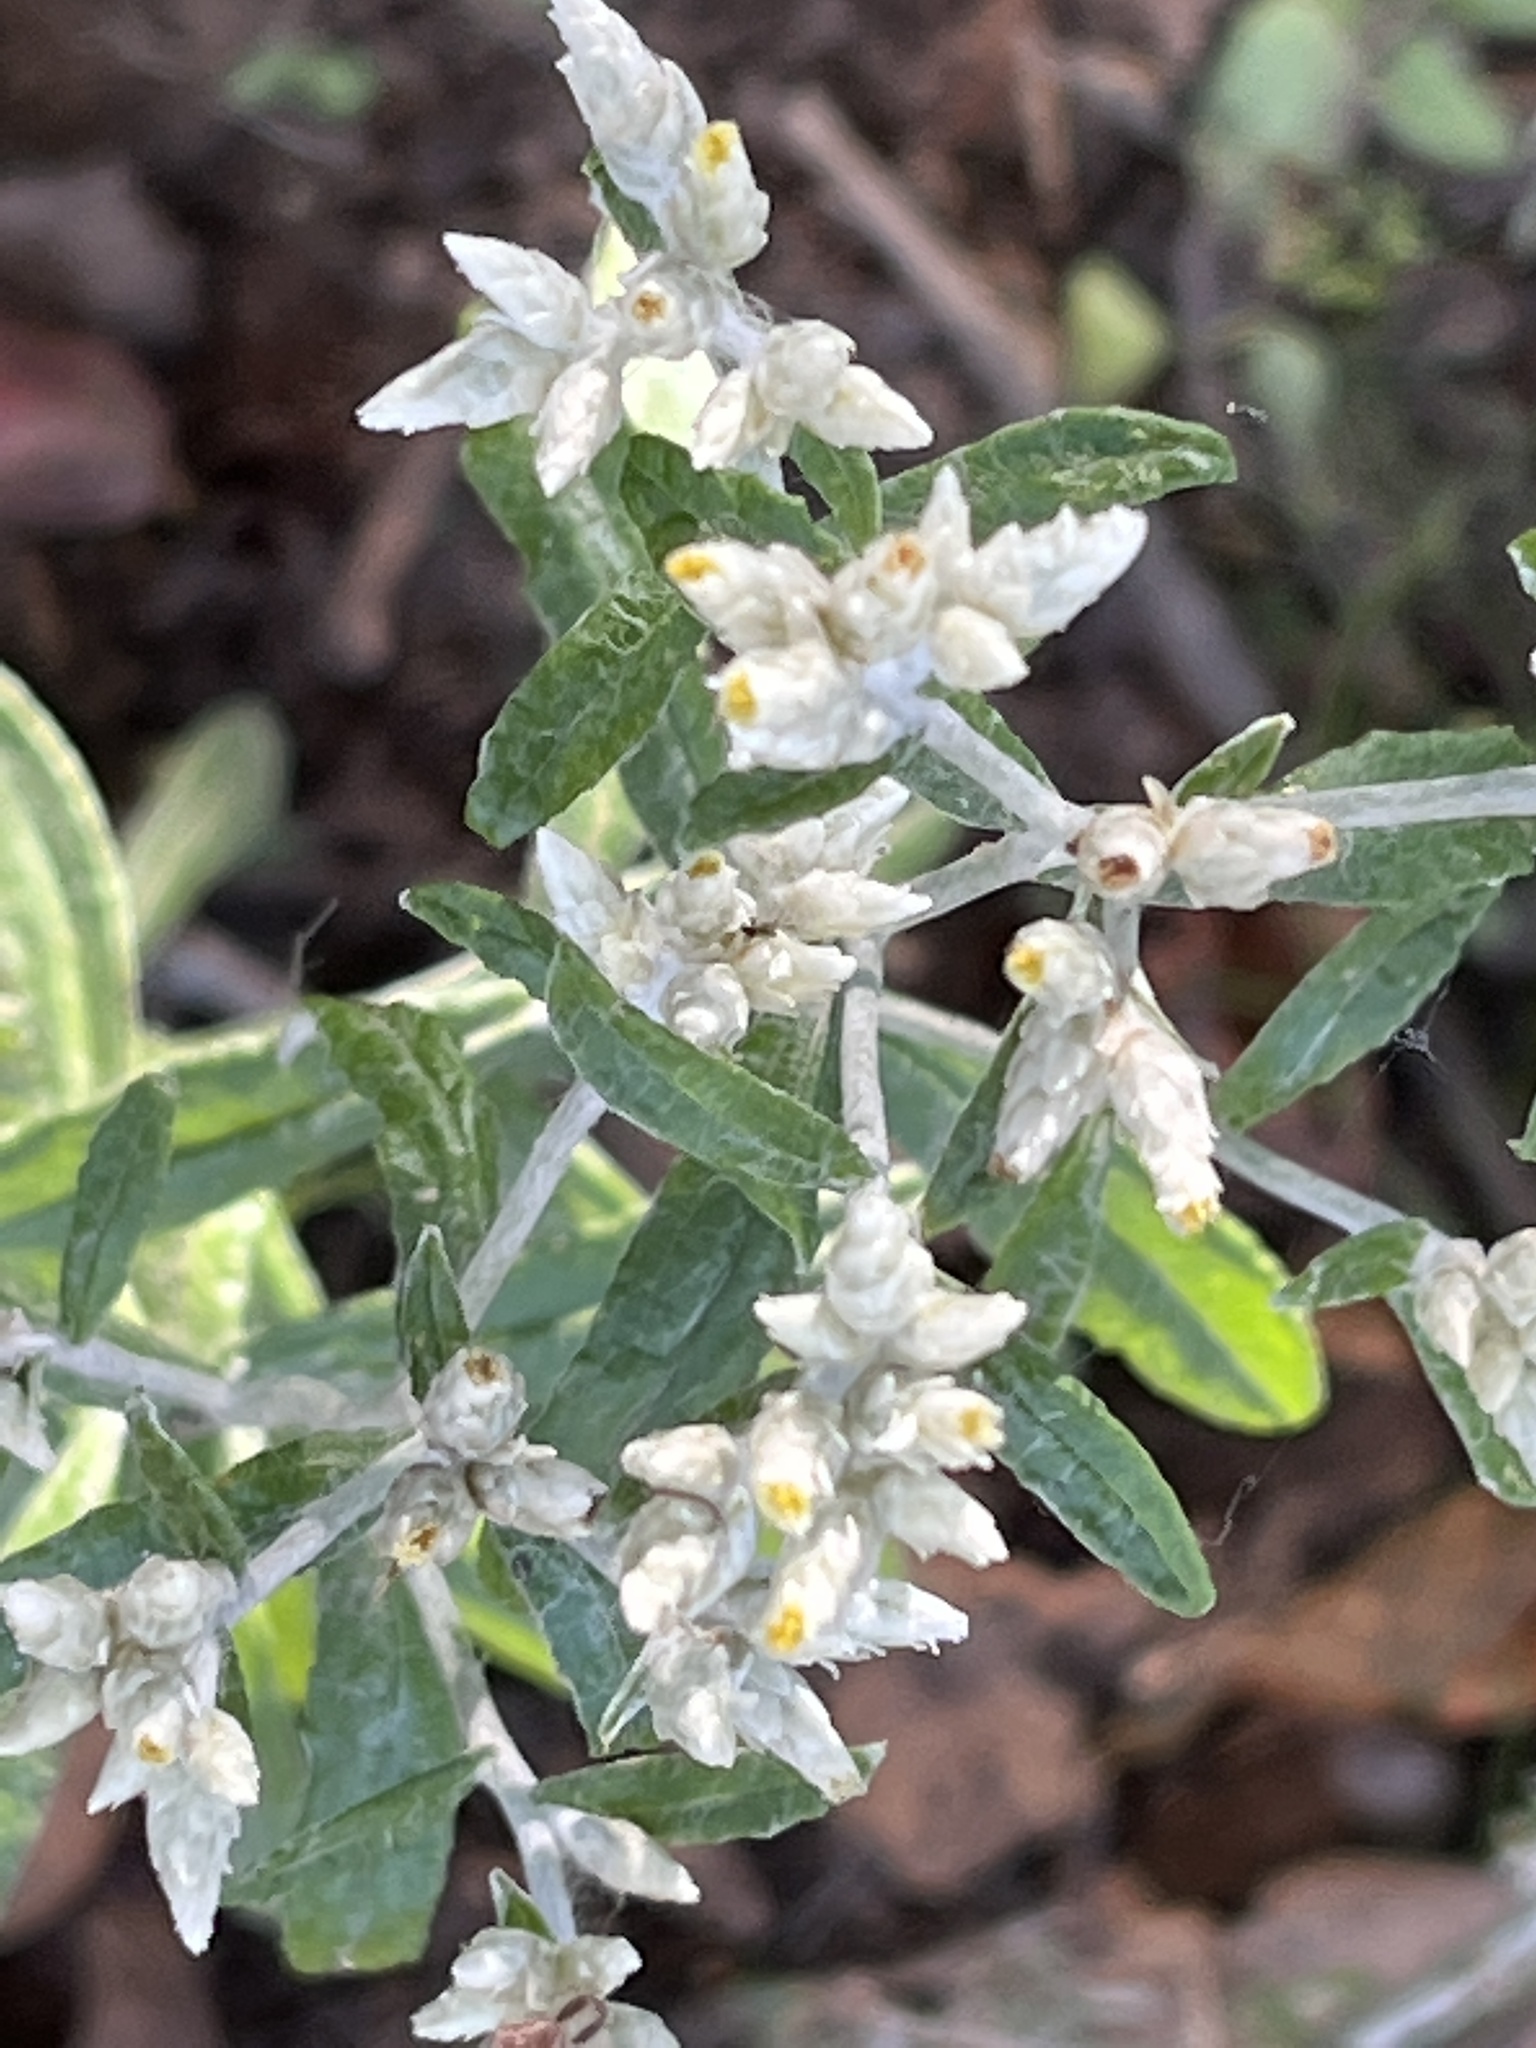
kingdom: Plantae
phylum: Tracheophyta
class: Magnoliopsida
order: Asterales
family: Asteraceae
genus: Pseudognaphalium
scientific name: Pseudognaphalium obtusifolium
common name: Eastern rabbit-tobacco
